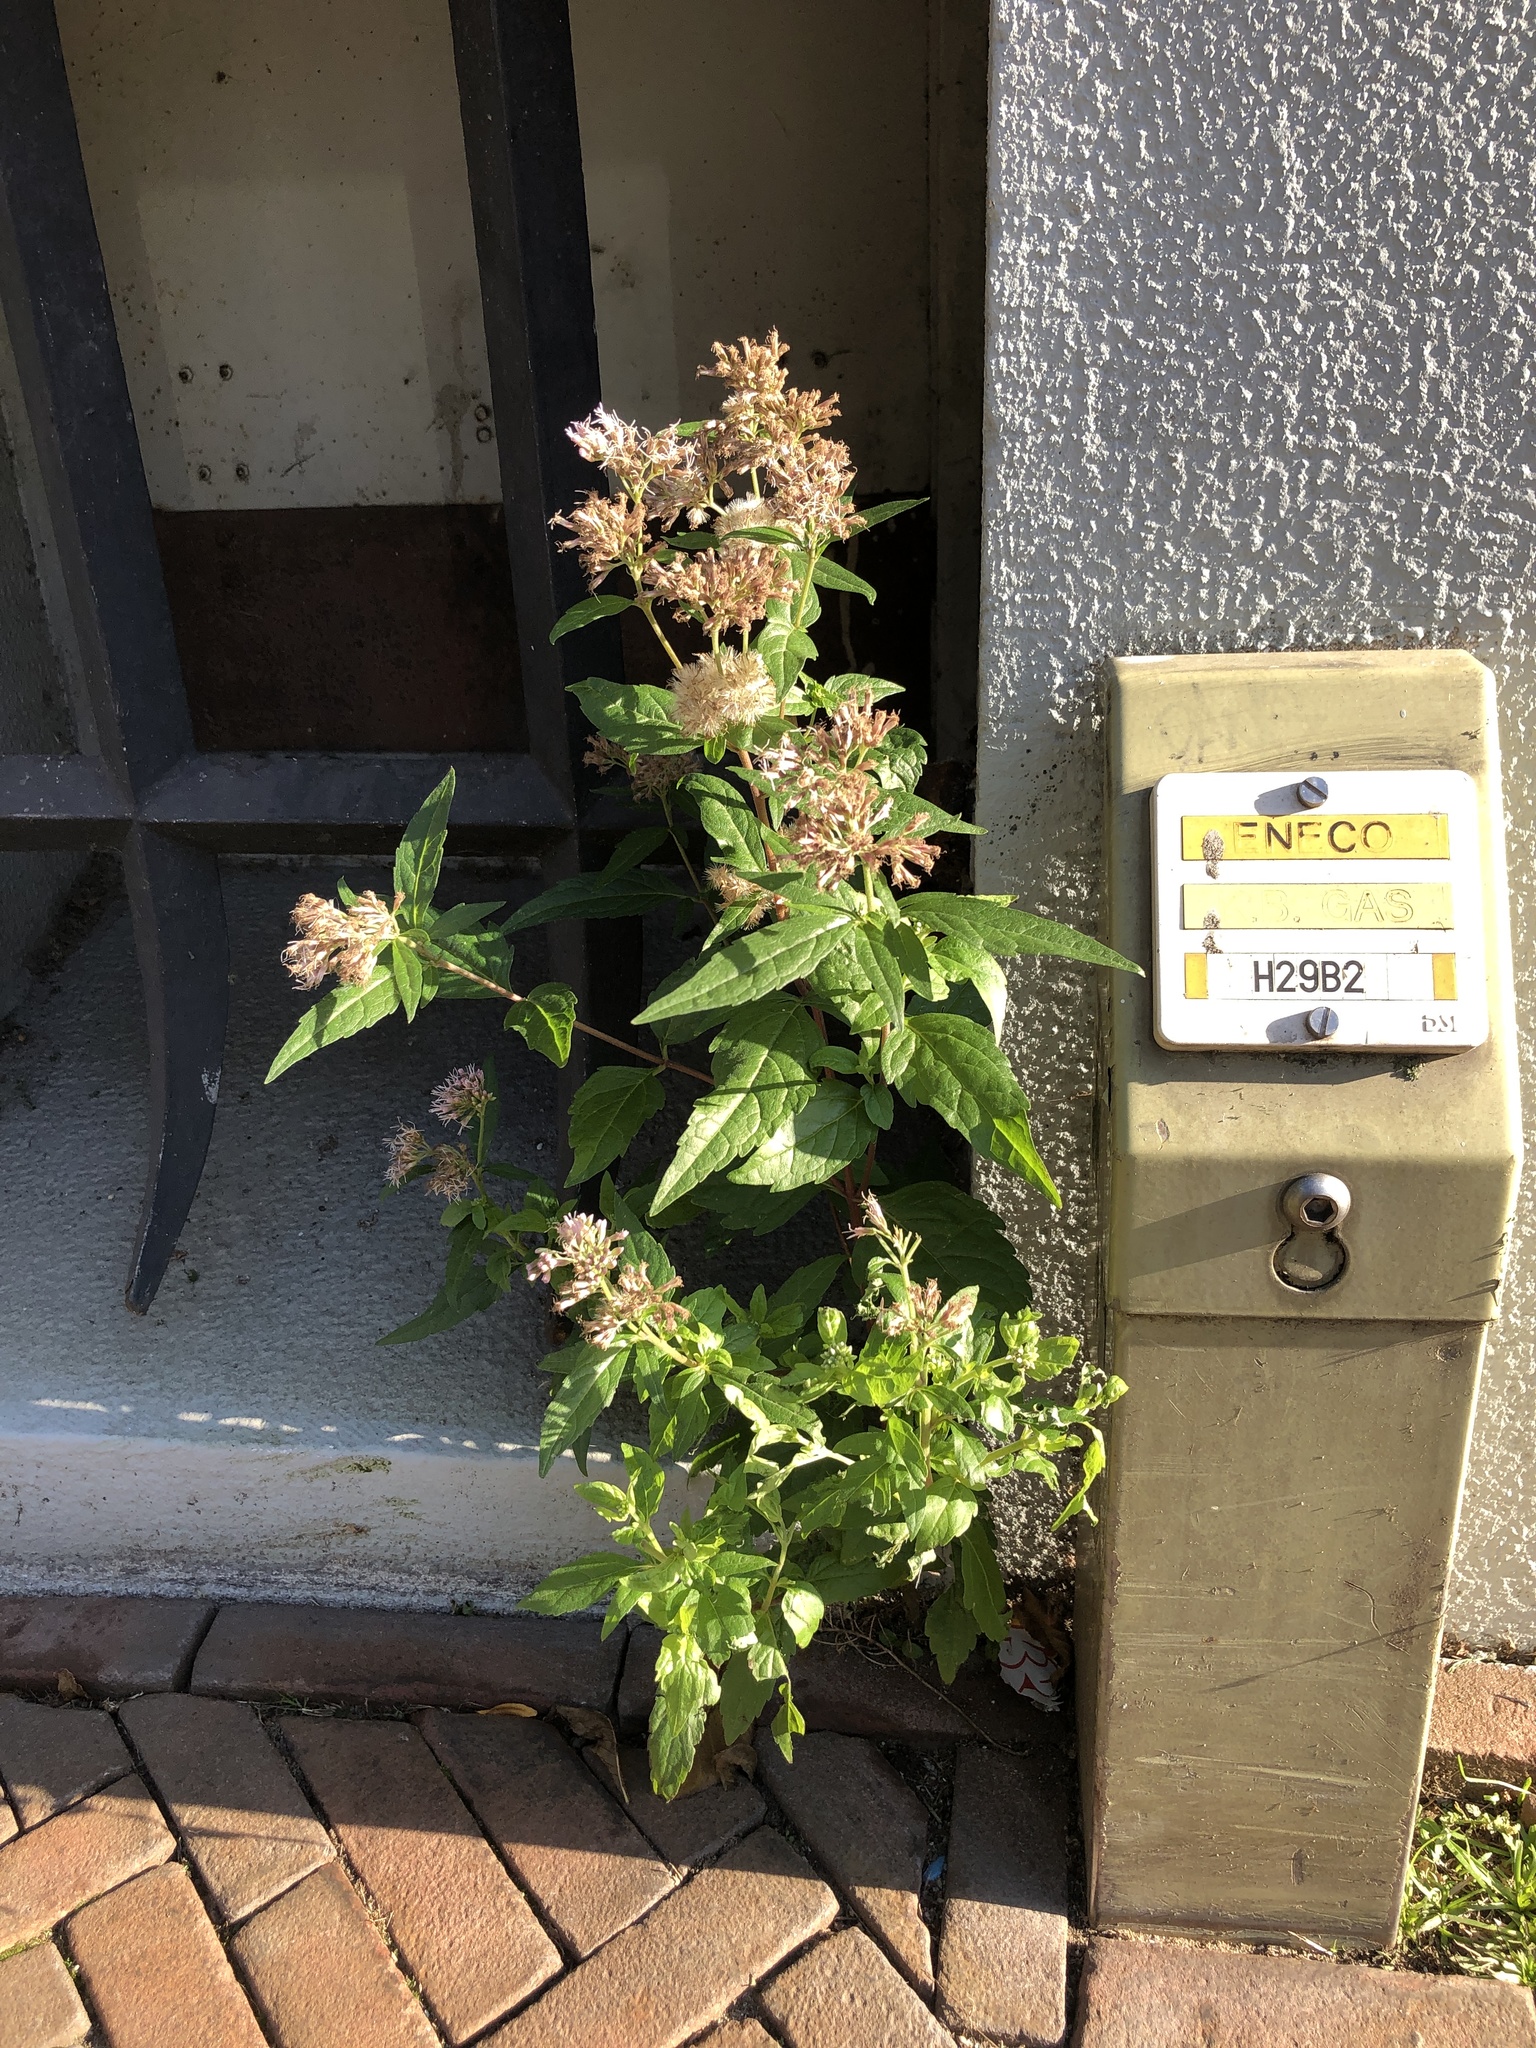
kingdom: Plantae
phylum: Tracheophyta
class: Magnoliopsida
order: Asterales
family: Asteraceae
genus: Eupatorium
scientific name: Eupatorium cannabinum
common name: Hemp-agrimony
